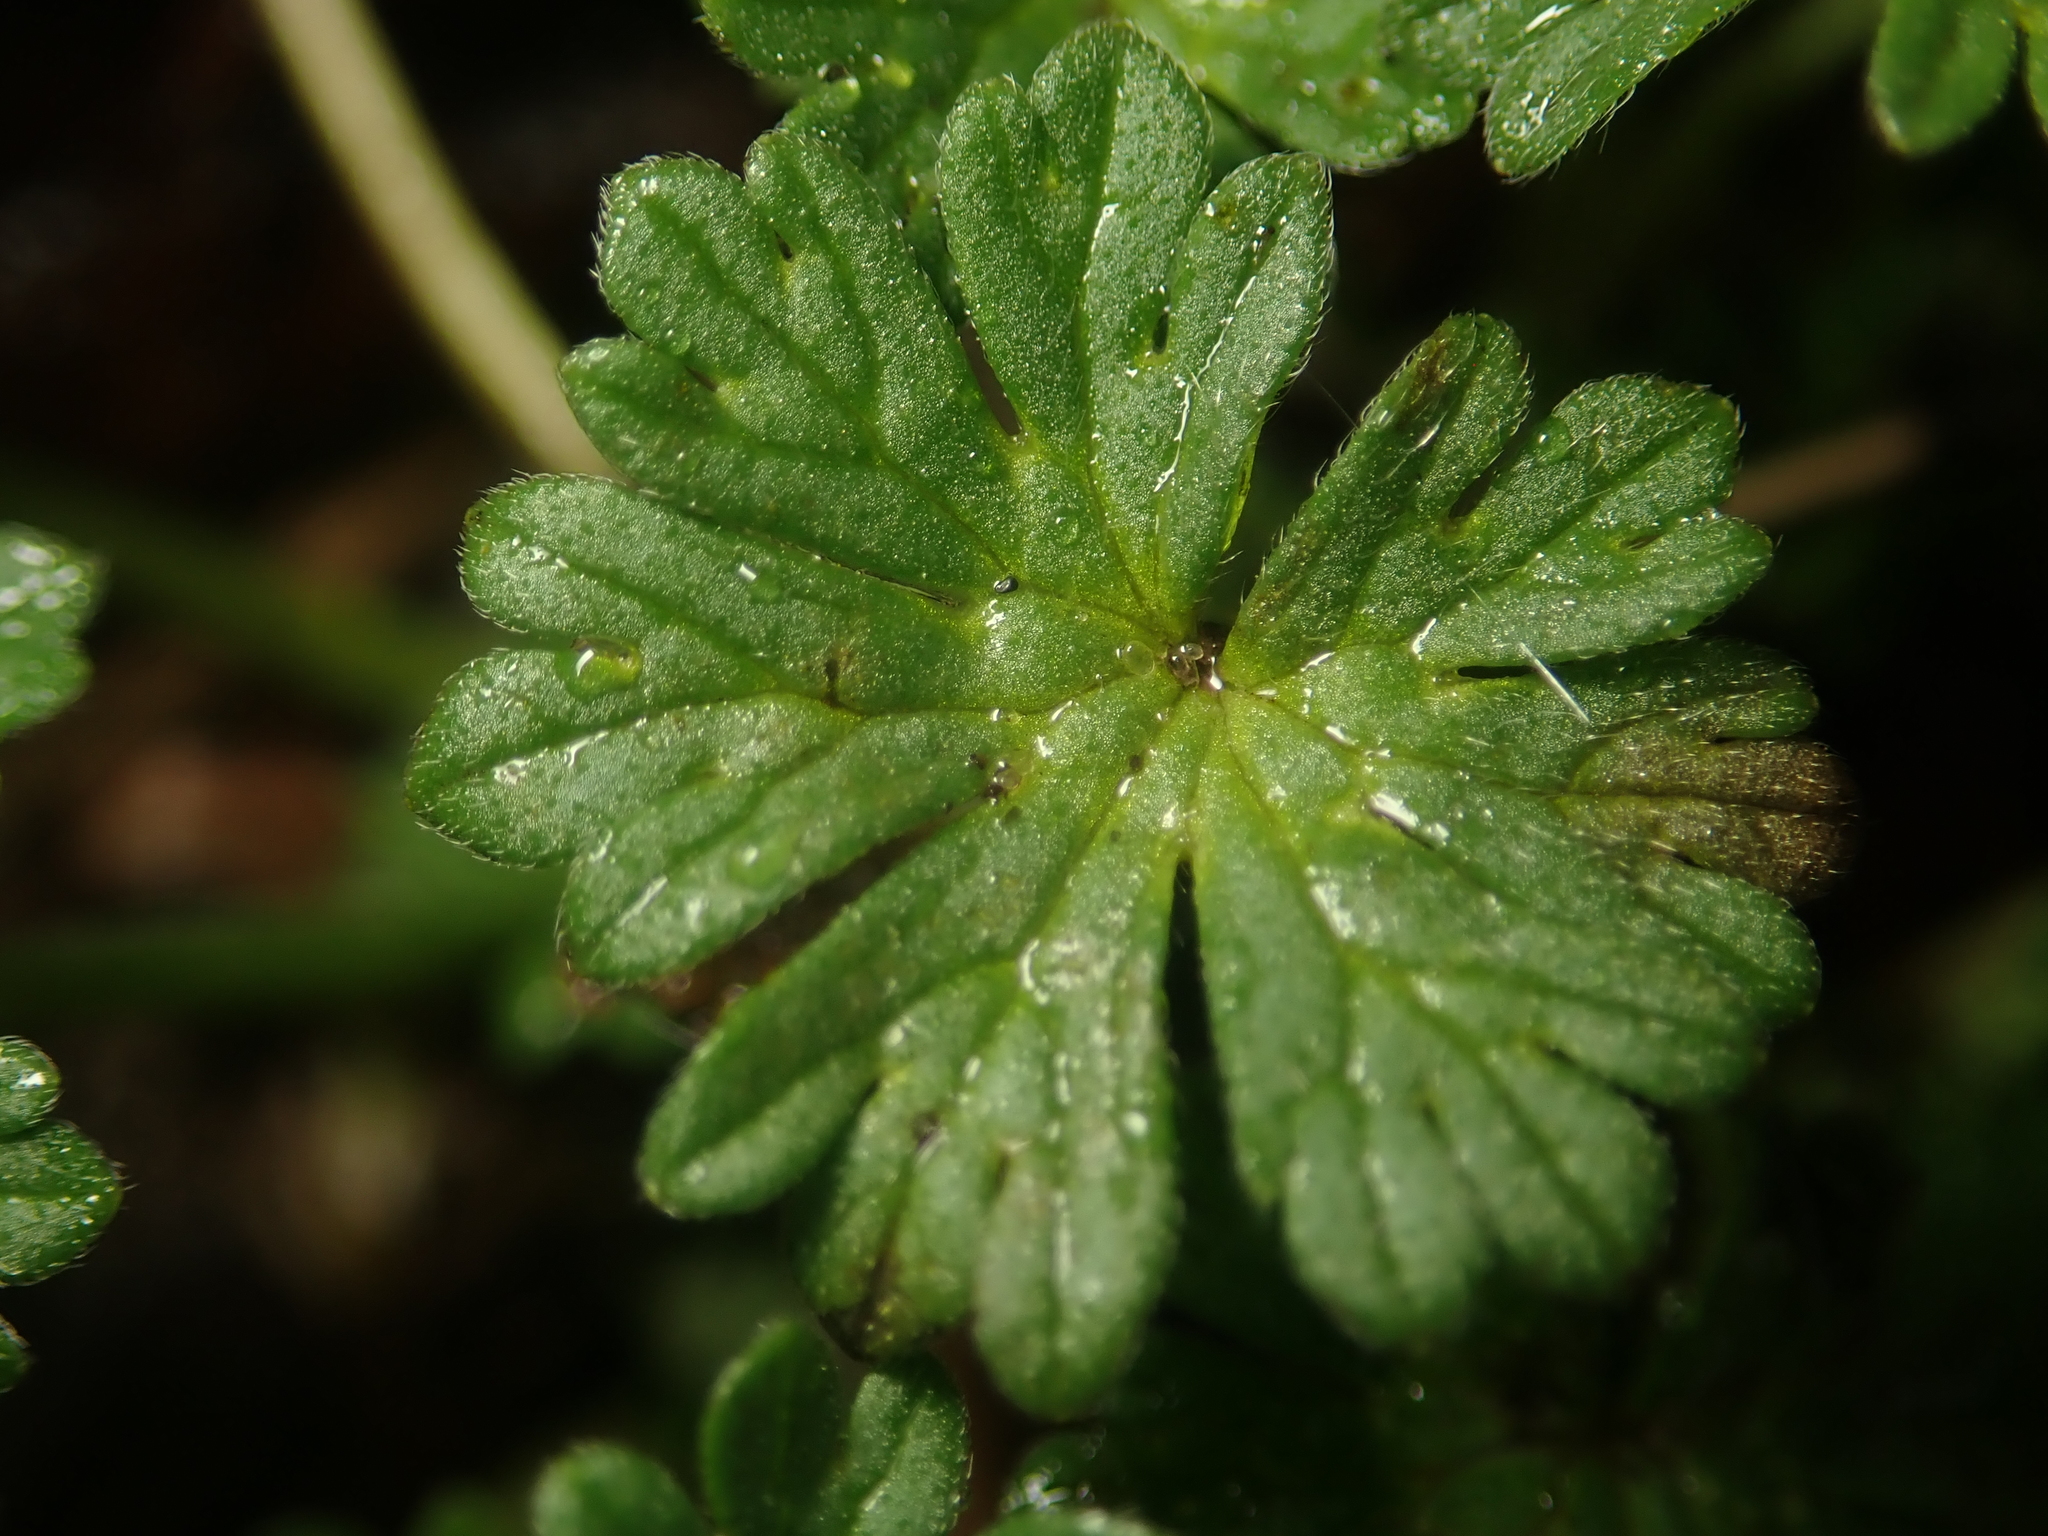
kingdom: Plantae
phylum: Tracheophyta
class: Magnoliopsida
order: Geraniales
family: Geraniaceae
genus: Geranium
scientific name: Geranium pusillum
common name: Small geranium
